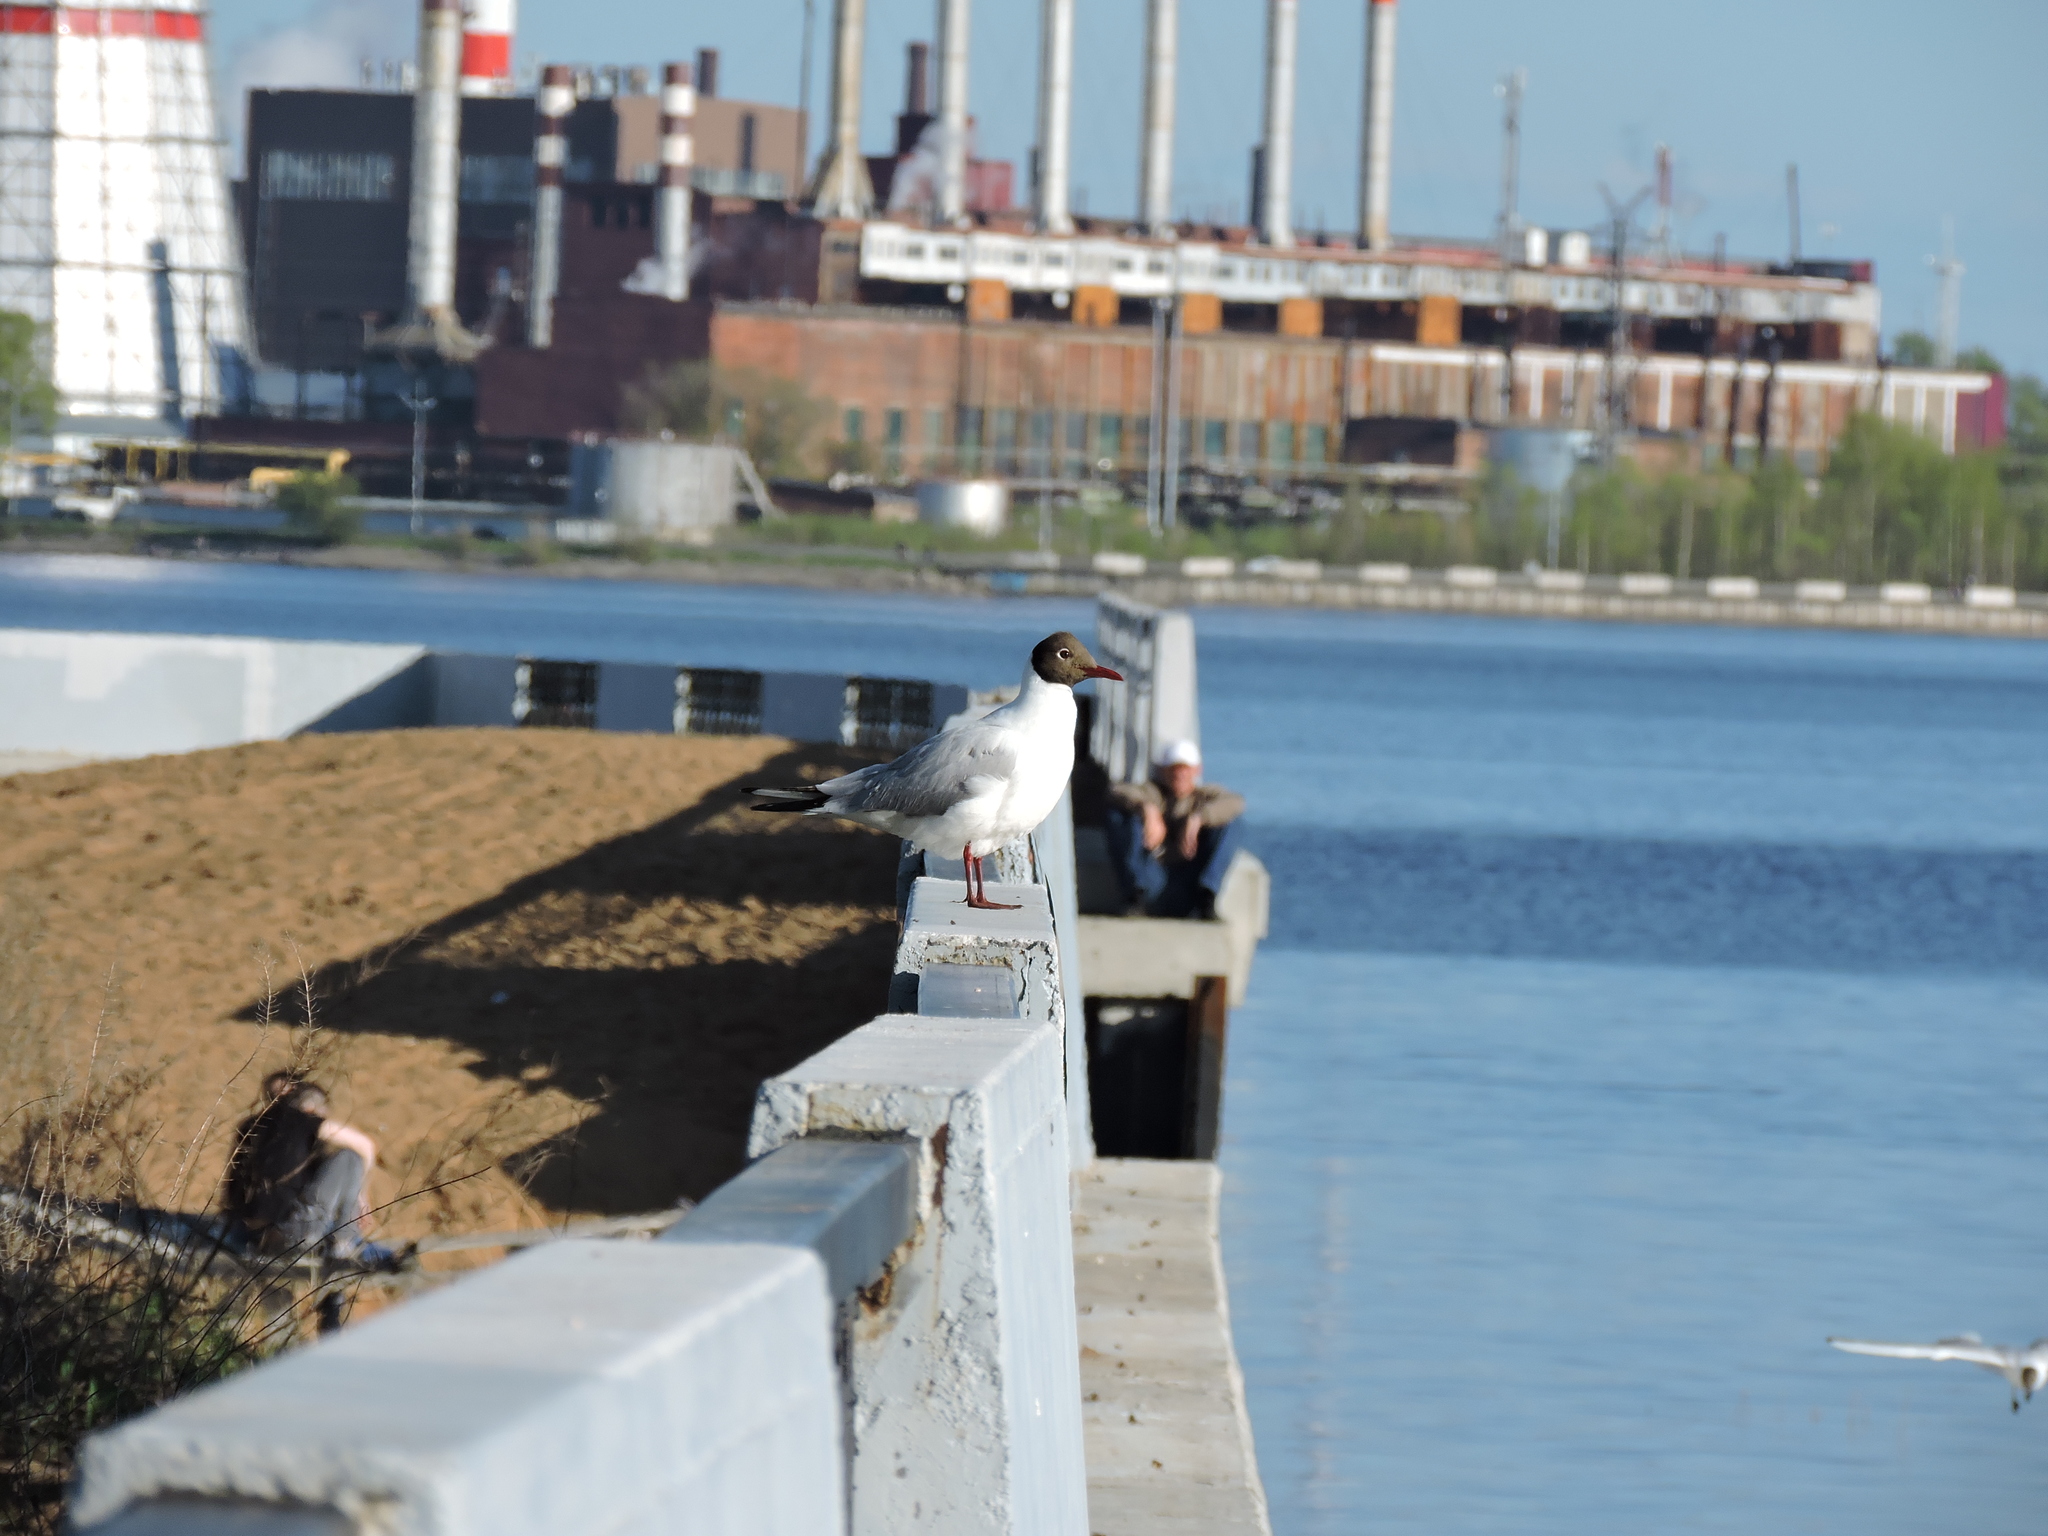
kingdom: Animalia
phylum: Chordata
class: Aves
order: Charadriiformes
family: Laridae
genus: Chroicocephalus
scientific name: Chroicocephalus ridibundus
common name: Black-headed gull
